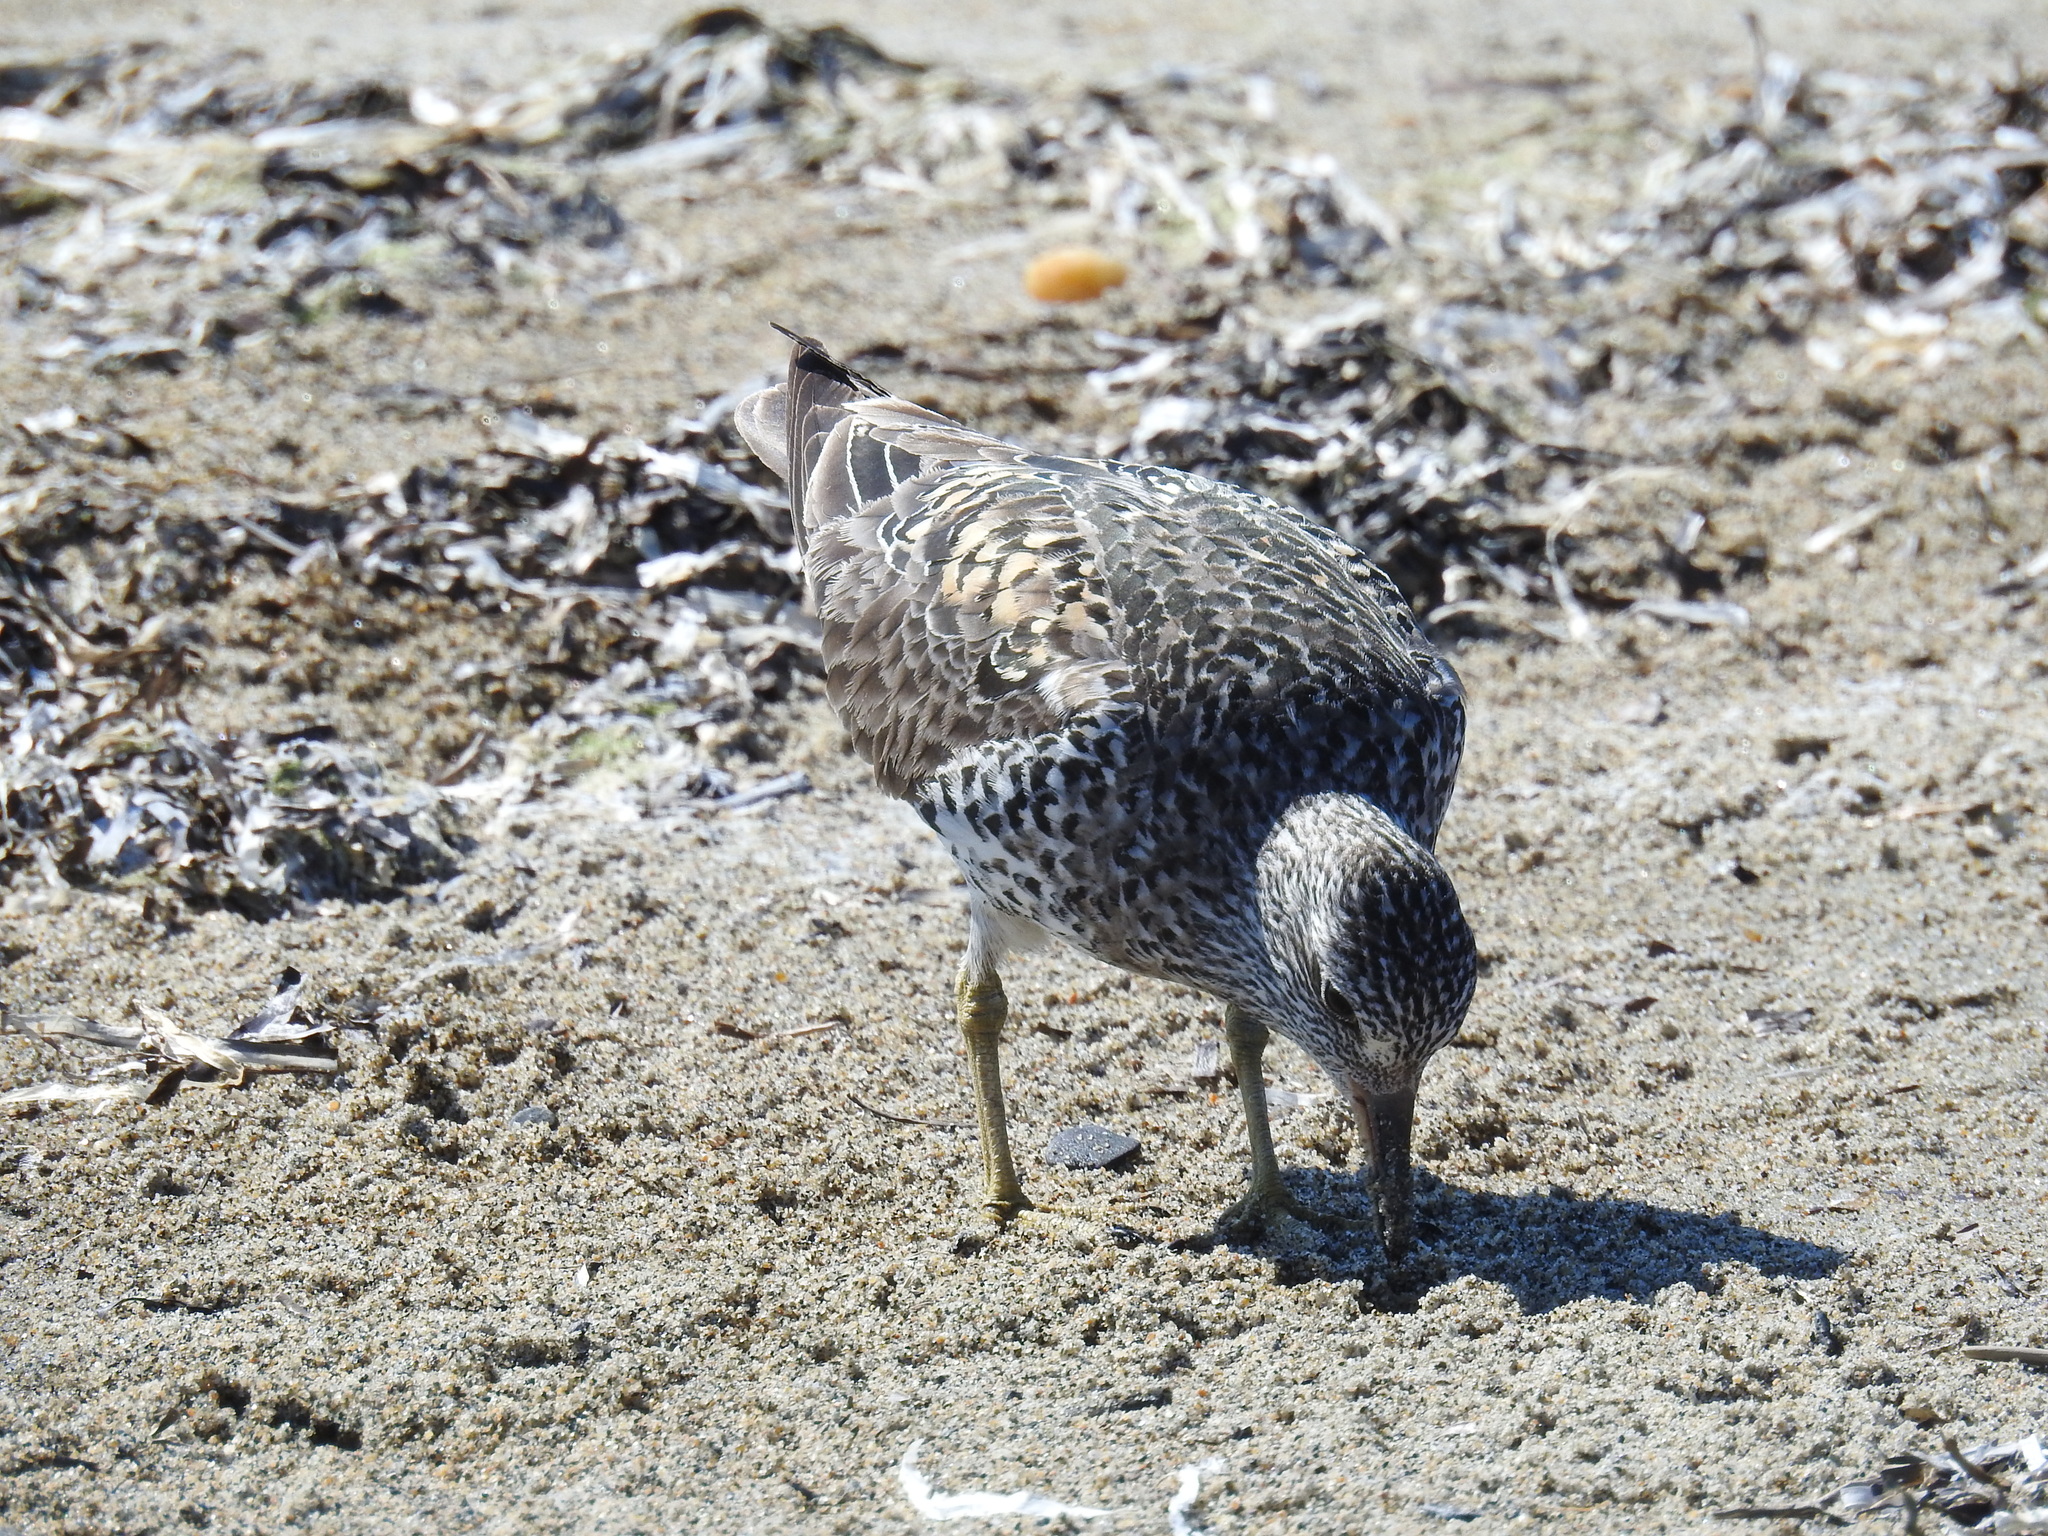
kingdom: Animalia
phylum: Chordata
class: Aves
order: Charadriiformes
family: Scolopacidae
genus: Calidris
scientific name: Calidris virgata
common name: Surfbird
